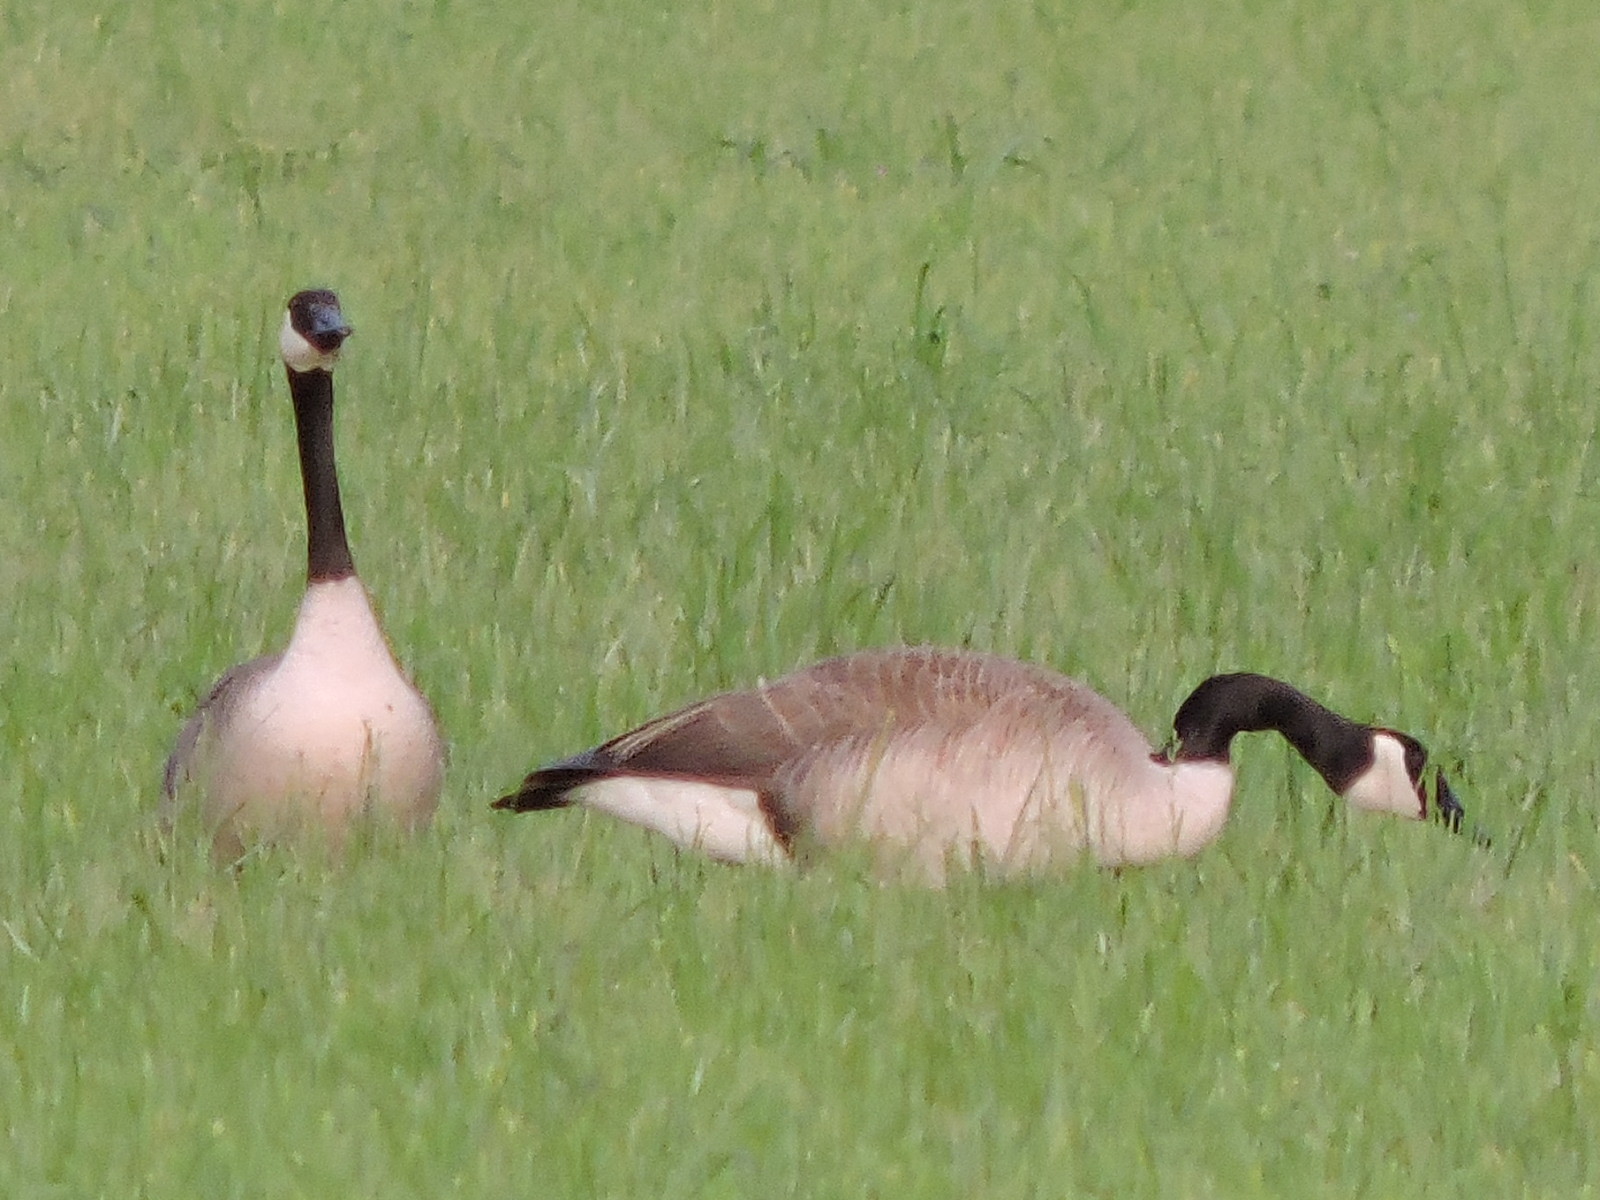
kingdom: Animalia
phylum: Chordata
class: Aves
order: Anseriformes
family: Anatidae
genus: Branta
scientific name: Branta canadensis
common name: Canada goose
